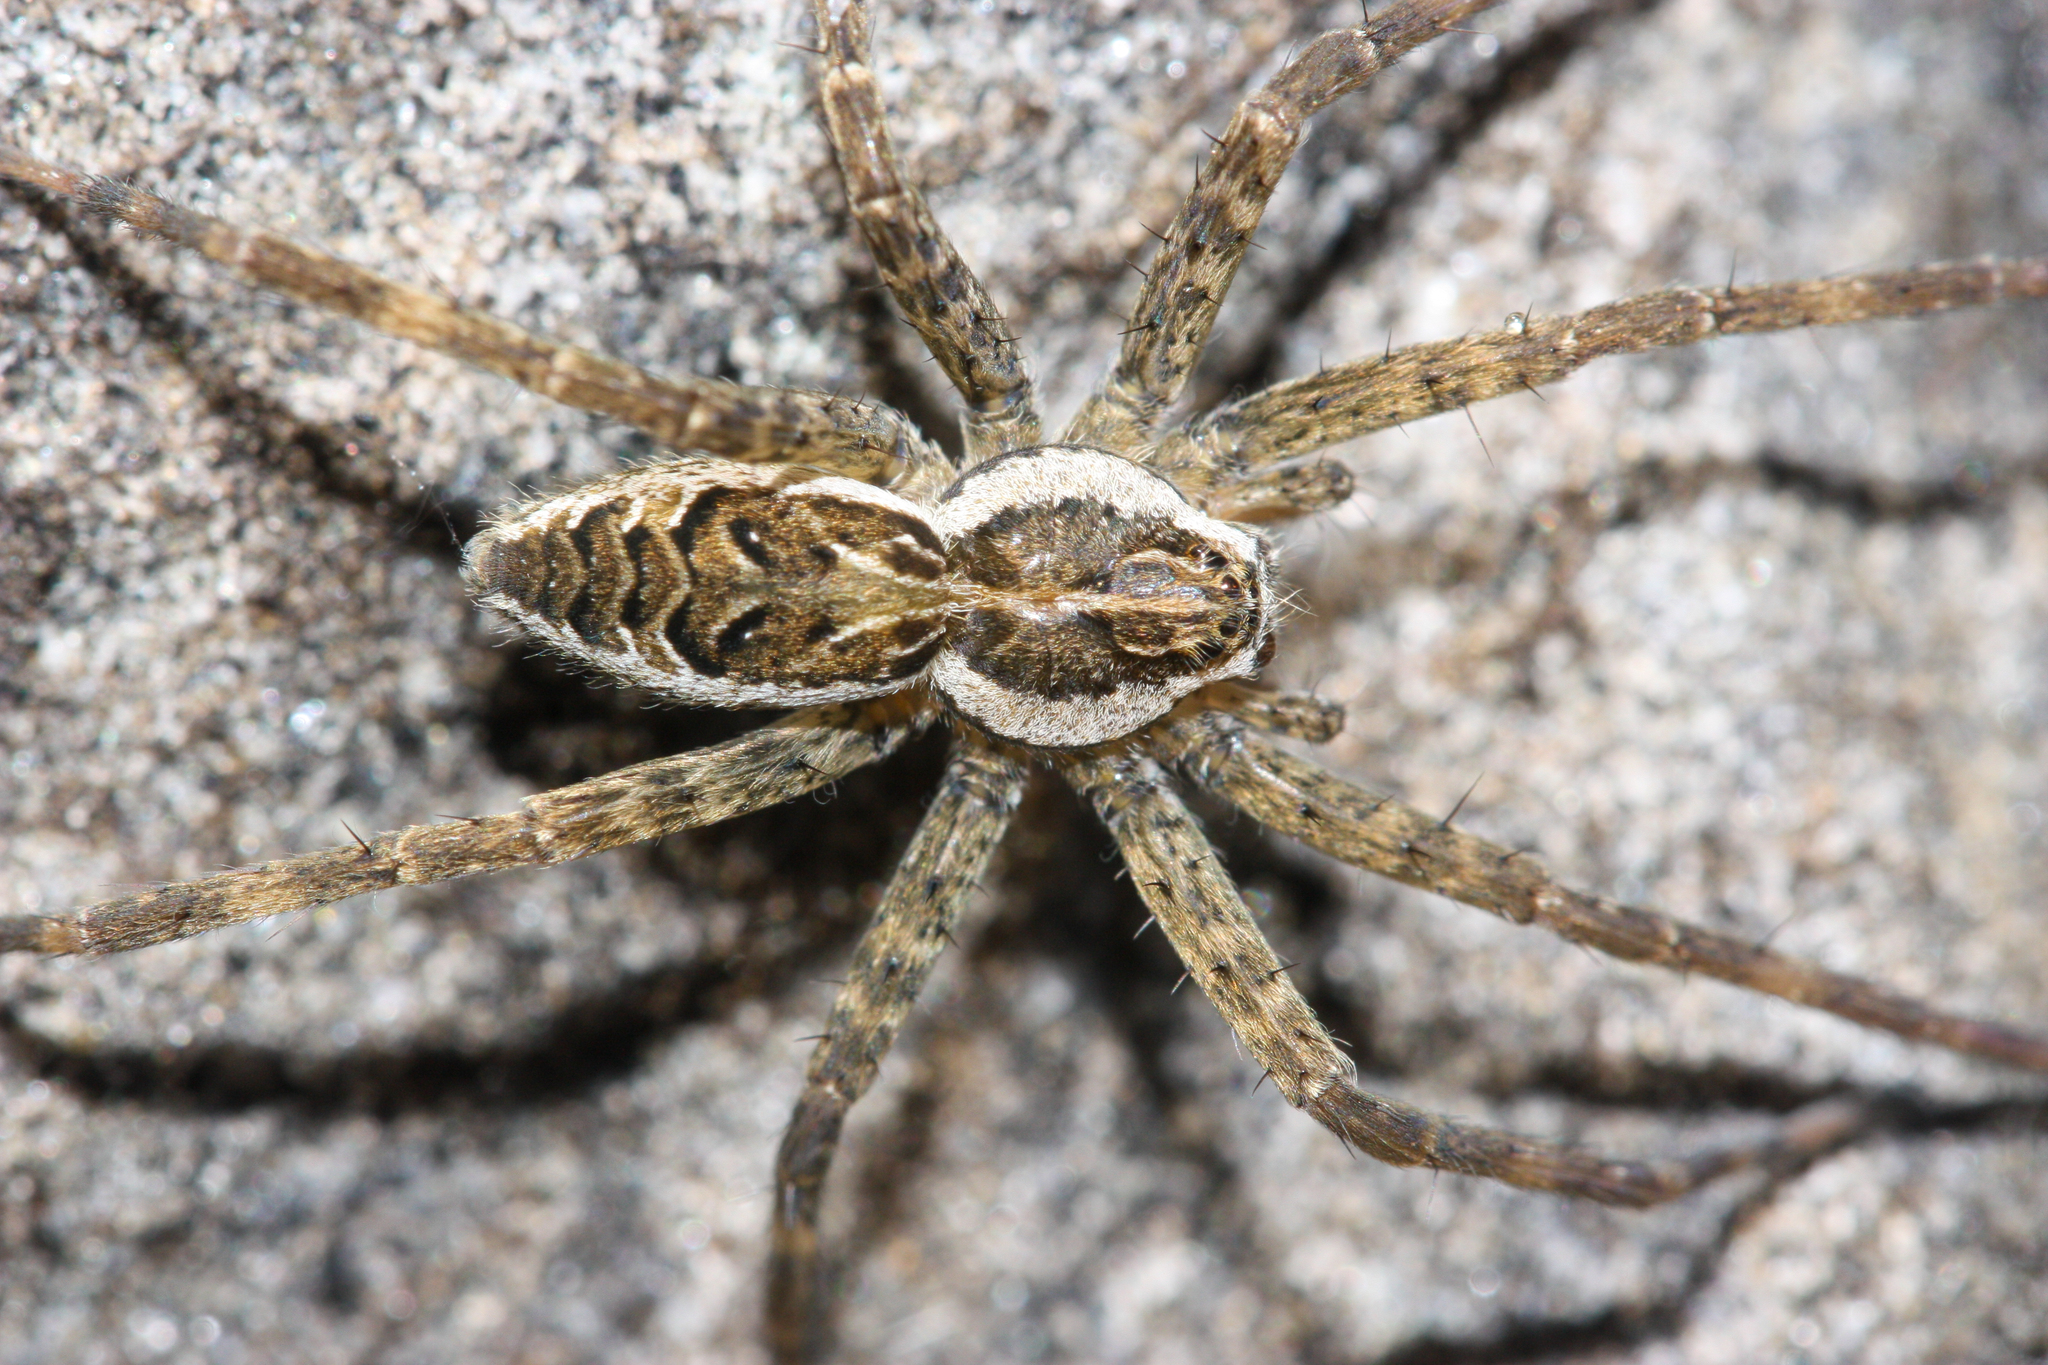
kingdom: Animalia
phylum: Arthropoda
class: Arachnida
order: Araneae
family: Pisauridae
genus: Dolomedes
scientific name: Dolomedes scriptus
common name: Striped fishing spider
